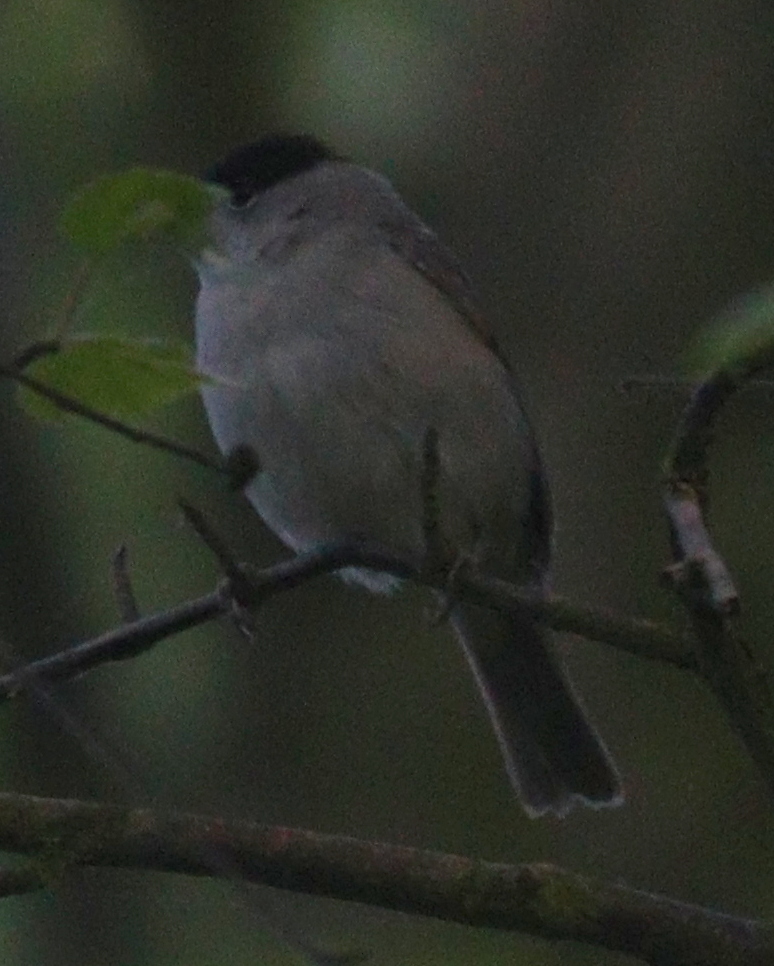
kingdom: Animalia
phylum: Chordata
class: Aves
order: Passeriformes
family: Sylviidae
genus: Sylvia
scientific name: Sylvia atricapilla
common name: Eurasian blackcap
